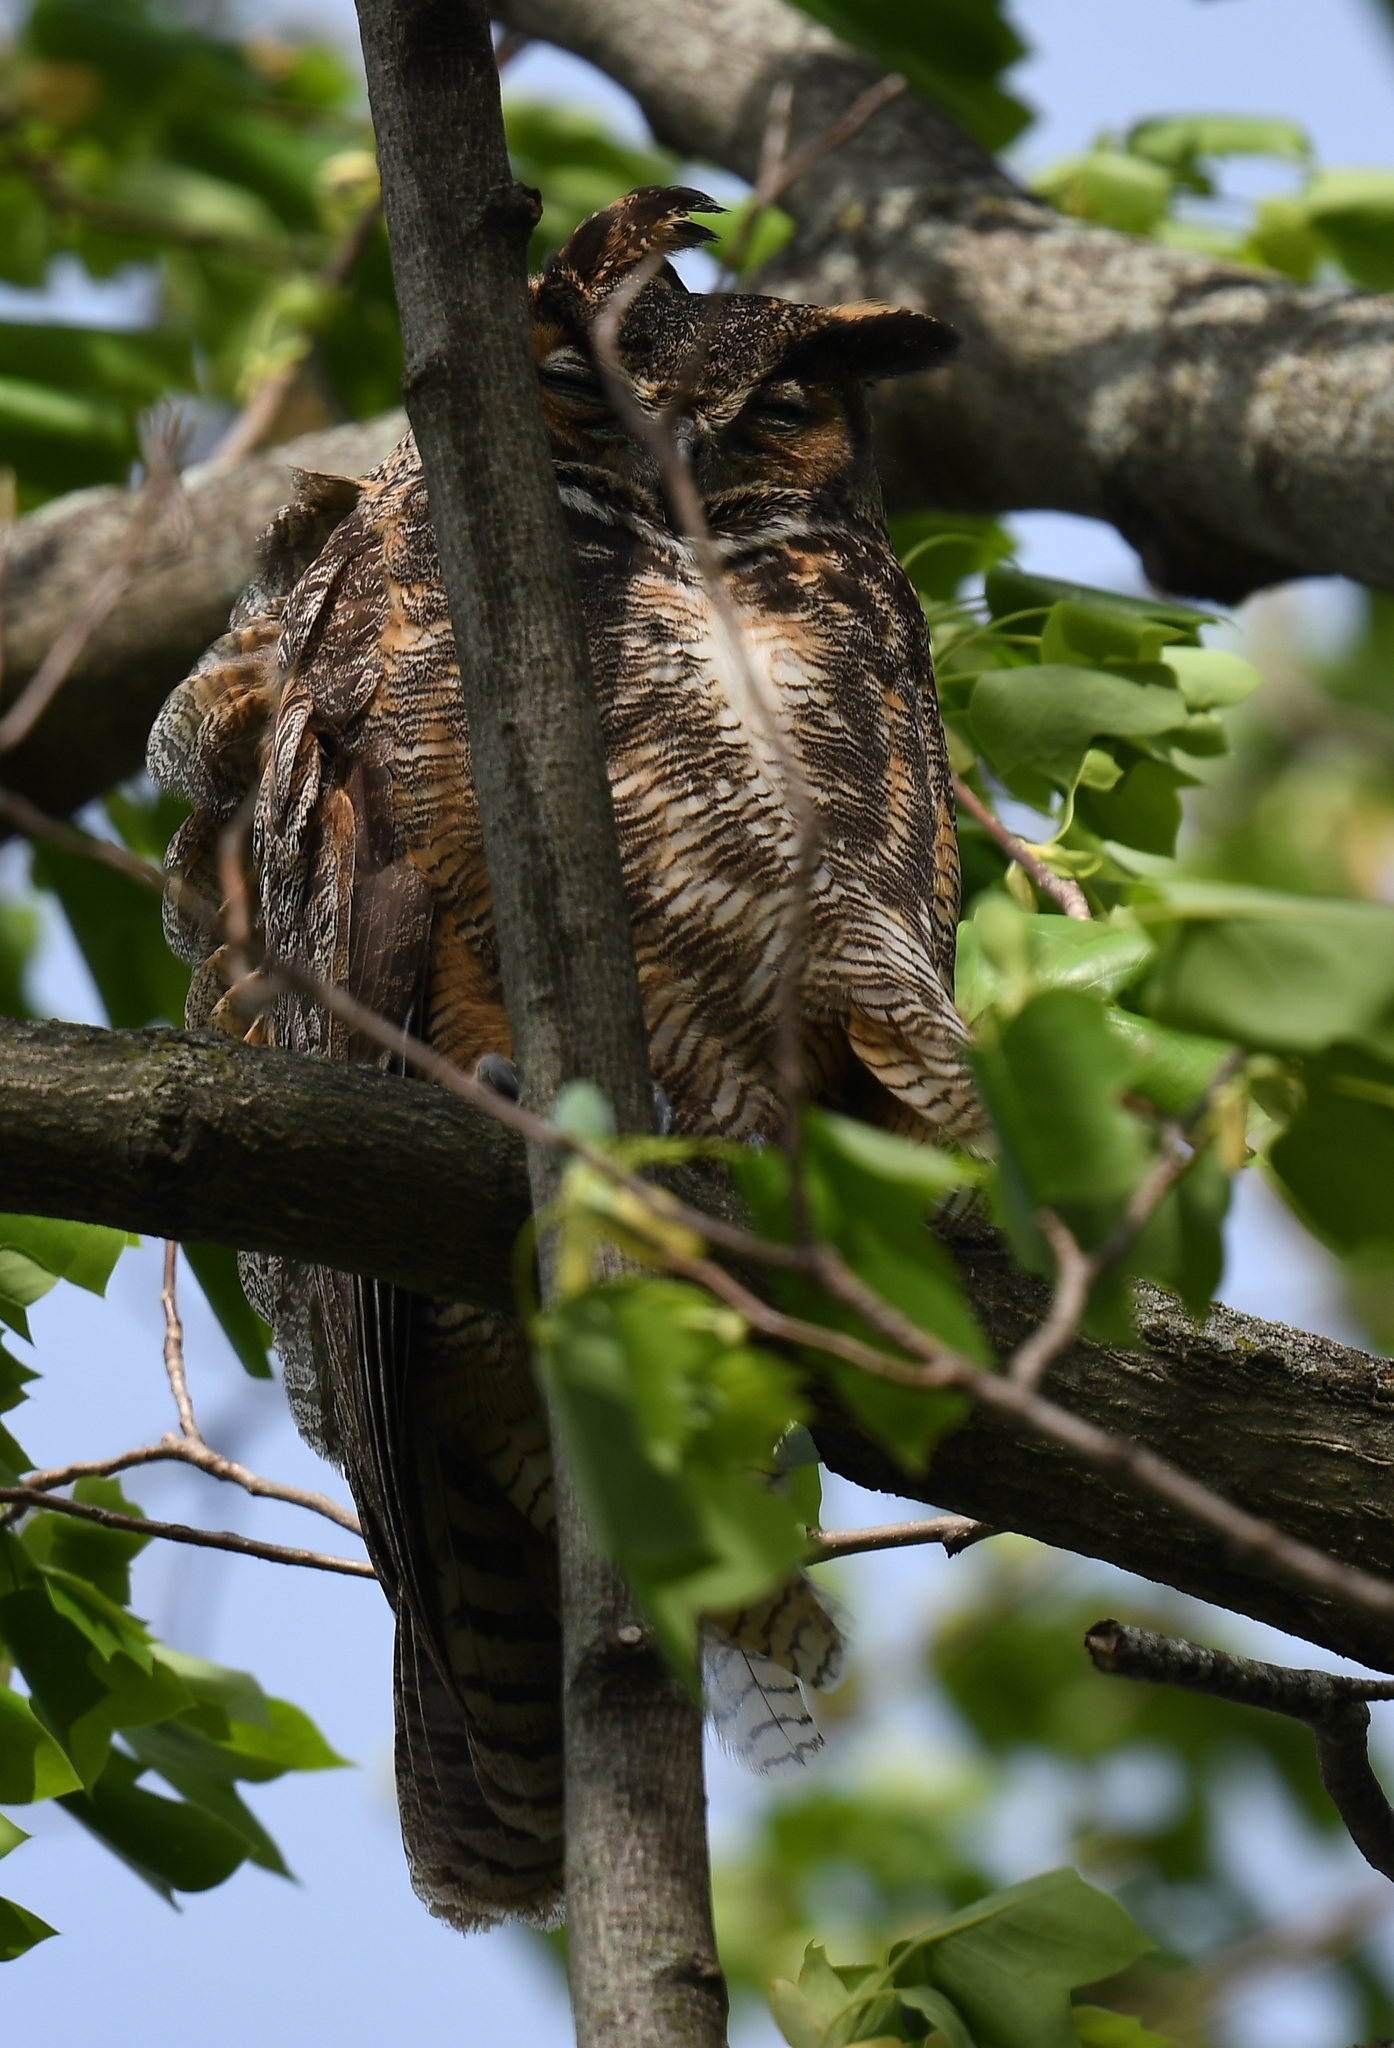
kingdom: Animalia
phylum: Chordata
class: Aves
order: Strigiformes
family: Strigidae
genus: Bubo
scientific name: Bubo virginianus
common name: Great horned owl
